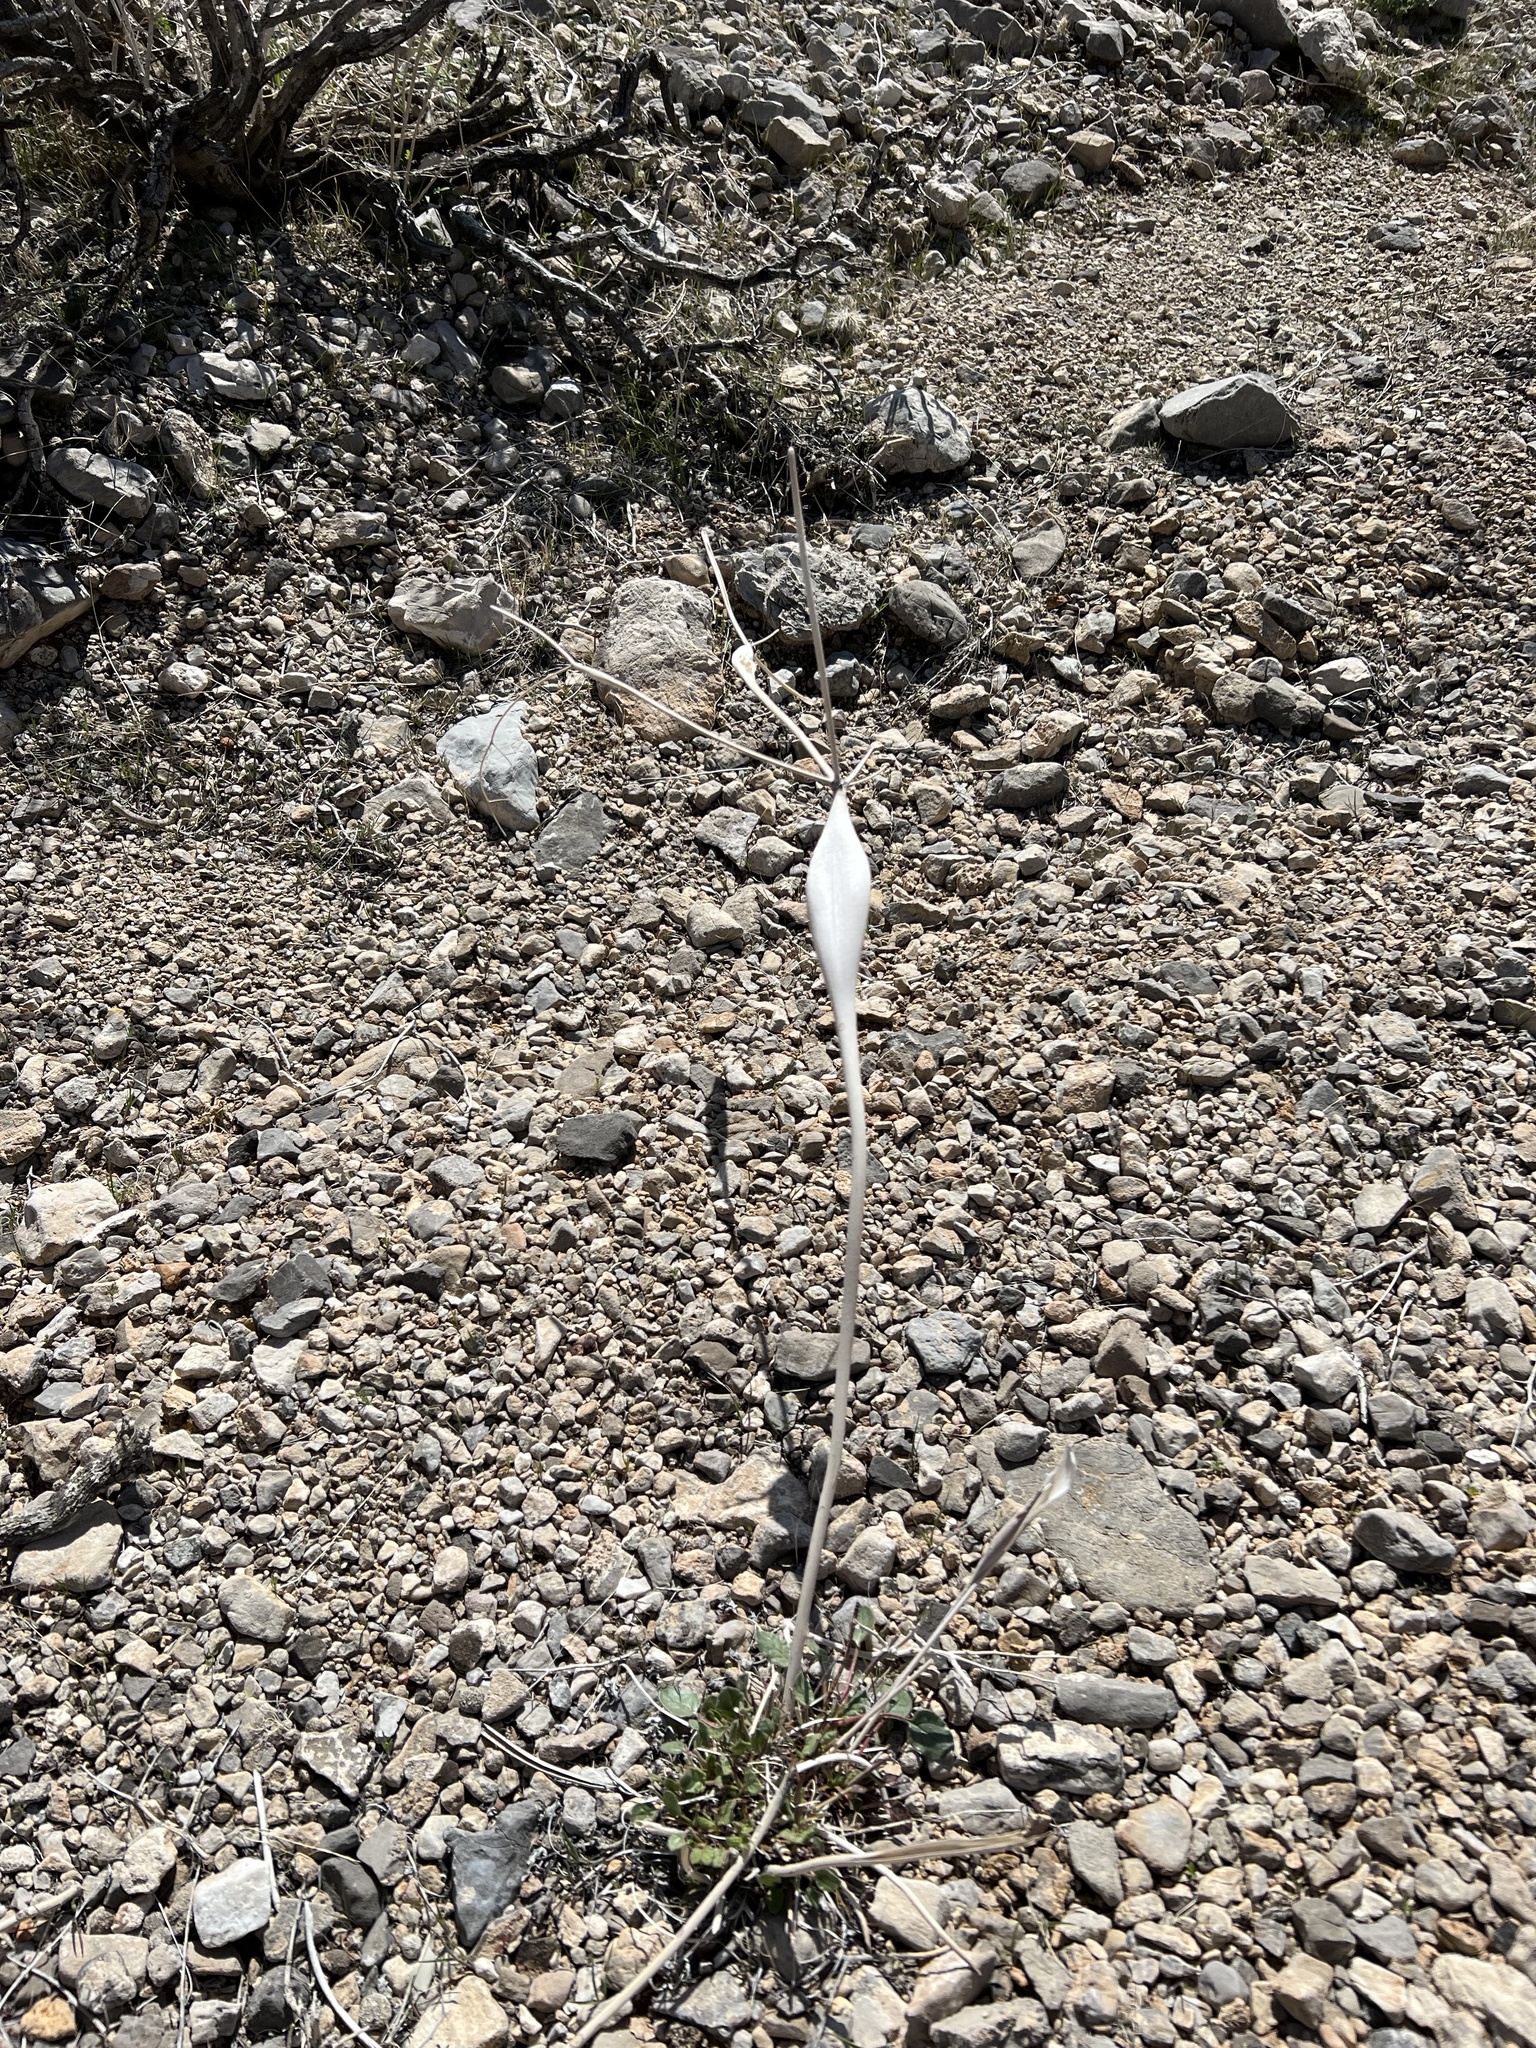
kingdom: Plantae
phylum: Tracheophyta
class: Magnoliopsida
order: Caryophyllales
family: Polygonaceae
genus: Eriogonum
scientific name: Eriogonum inflatum
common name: Desert trumpet
